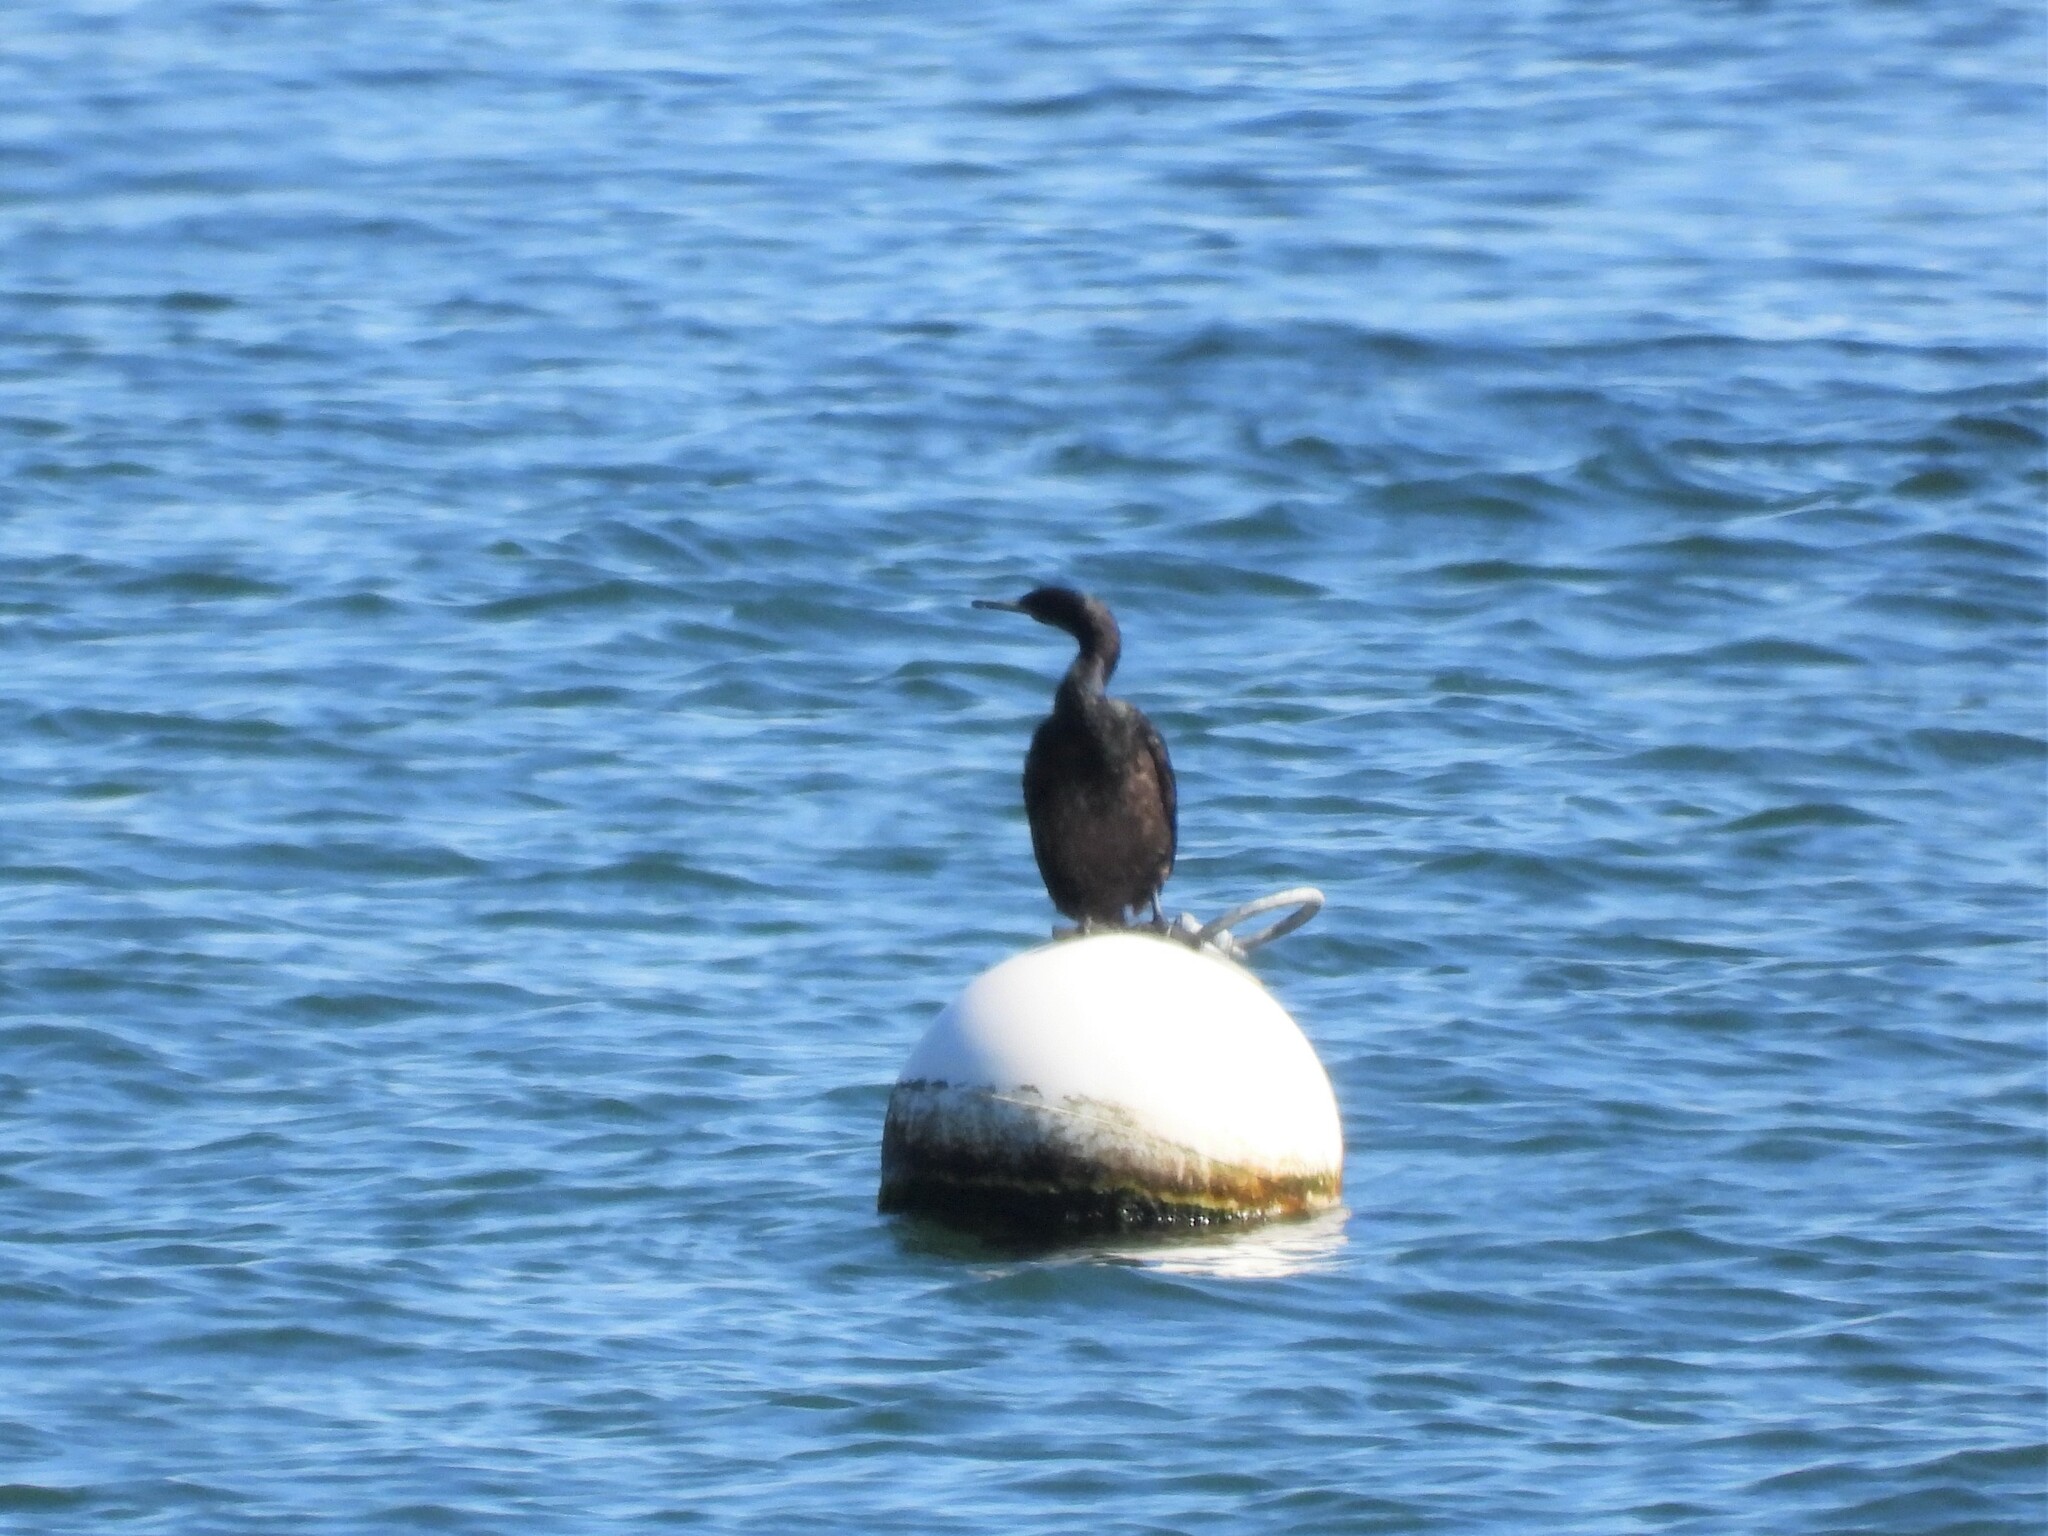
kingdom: Animalia
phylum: Chordata
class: Aves
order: Suliformes
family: Phalacrocoracidae
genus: Phalacrocorax
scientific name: Phalacrocorax pelagicus
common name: Pelagic cormorant
